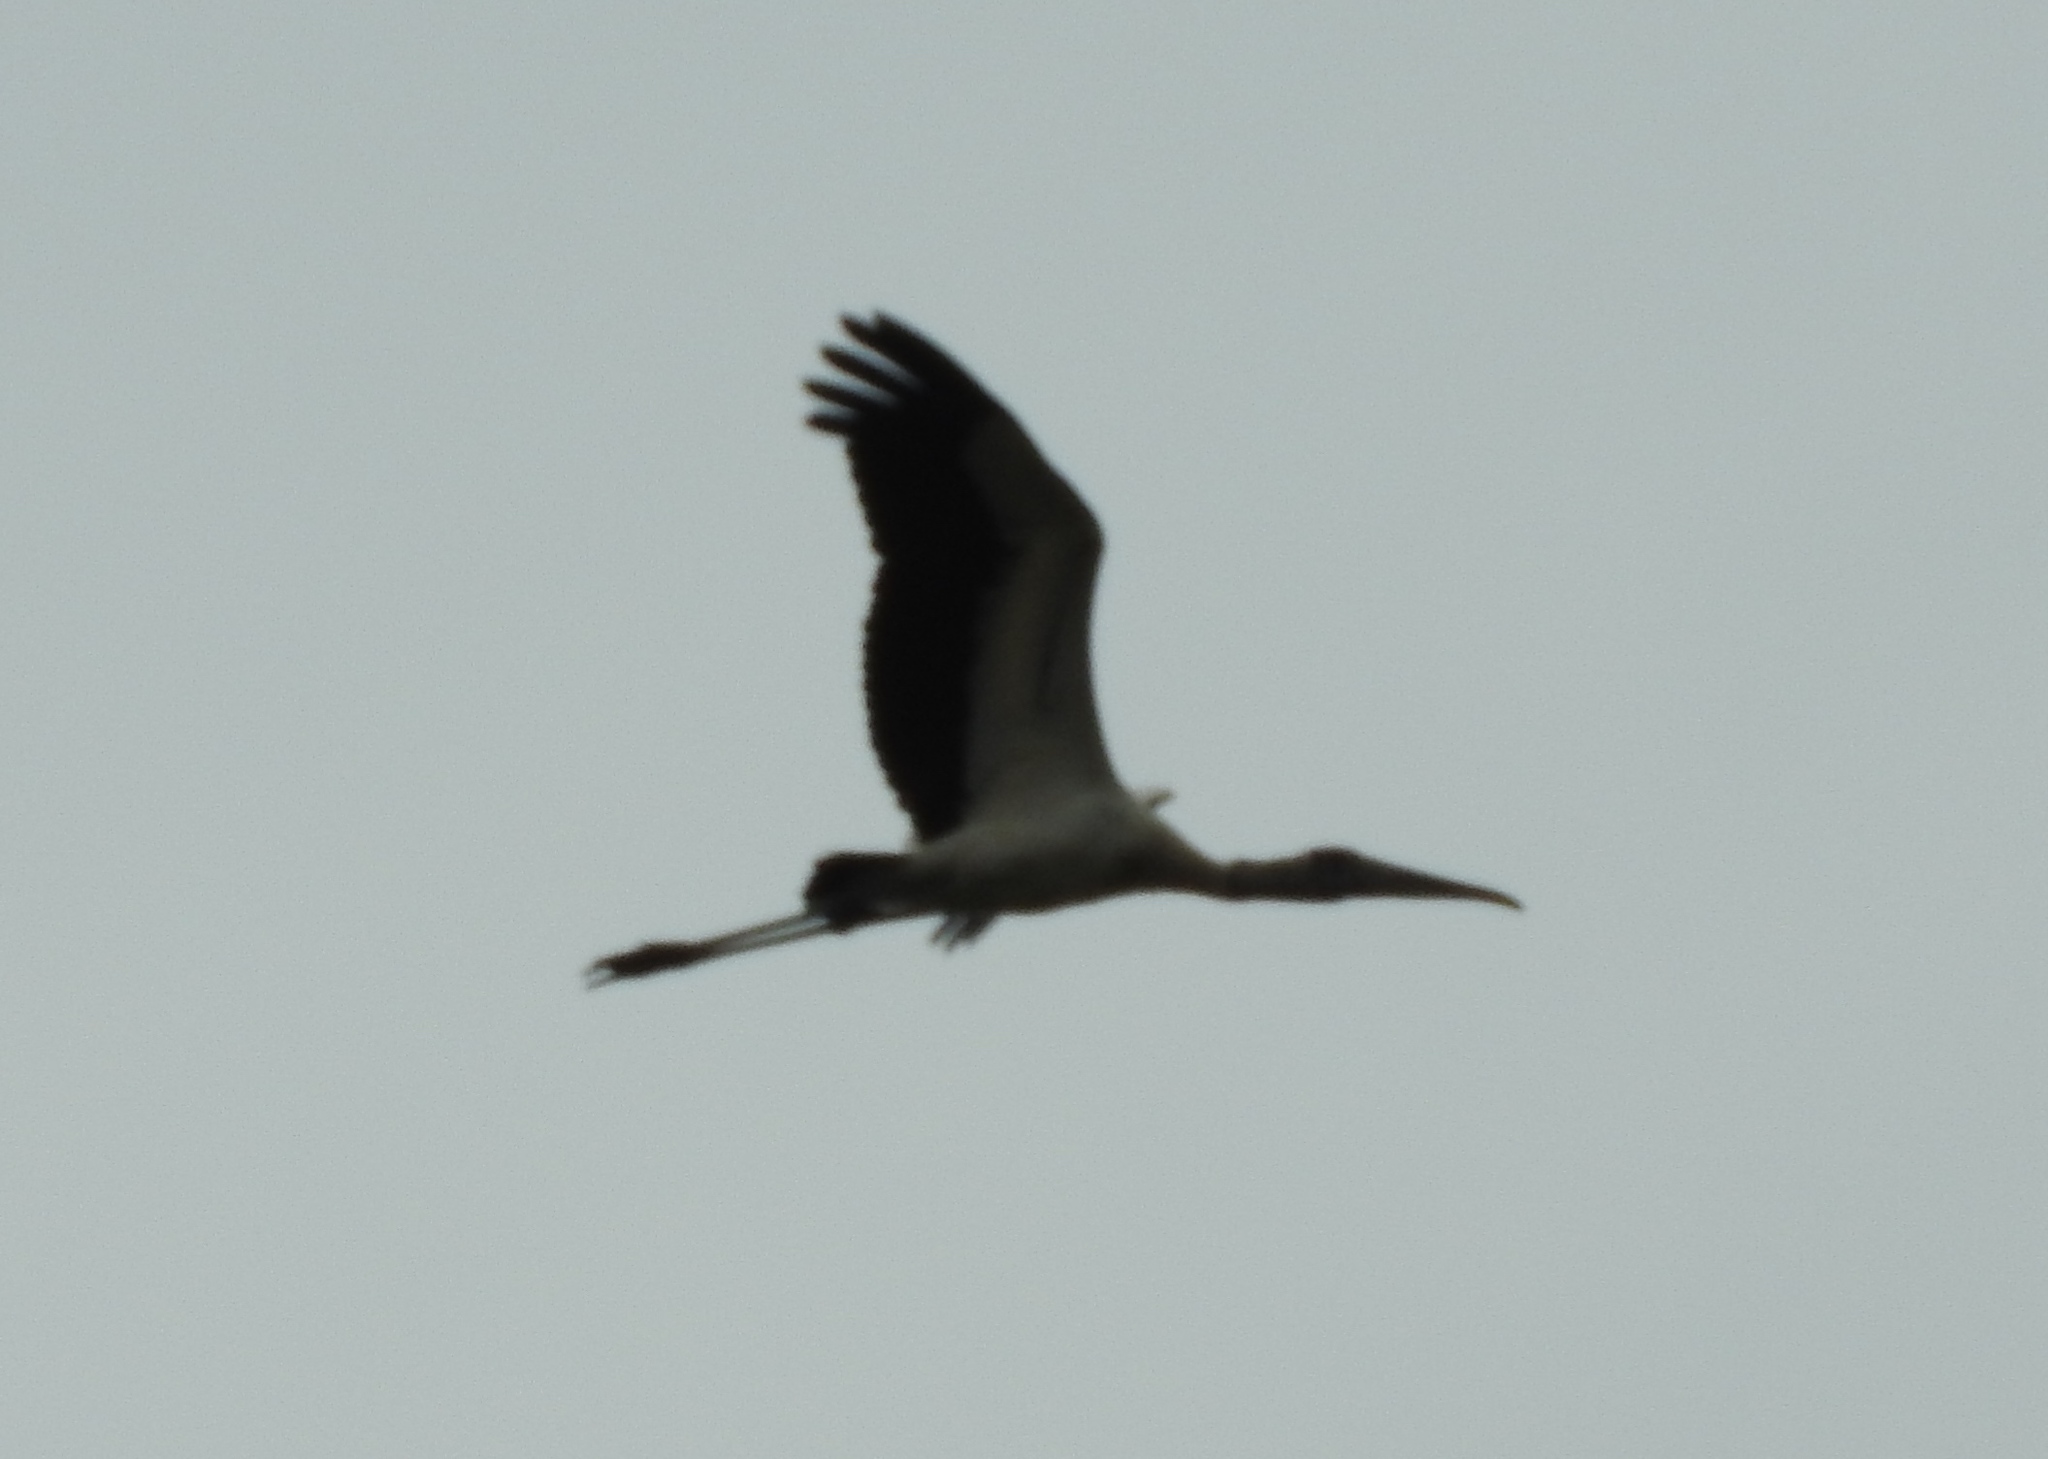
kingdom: Animalia
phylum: Chordata
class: Aves
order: Ciconiiformes
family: Ciconiidae
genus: Mycteria
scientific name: Mycteria americana
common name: Wood stork
